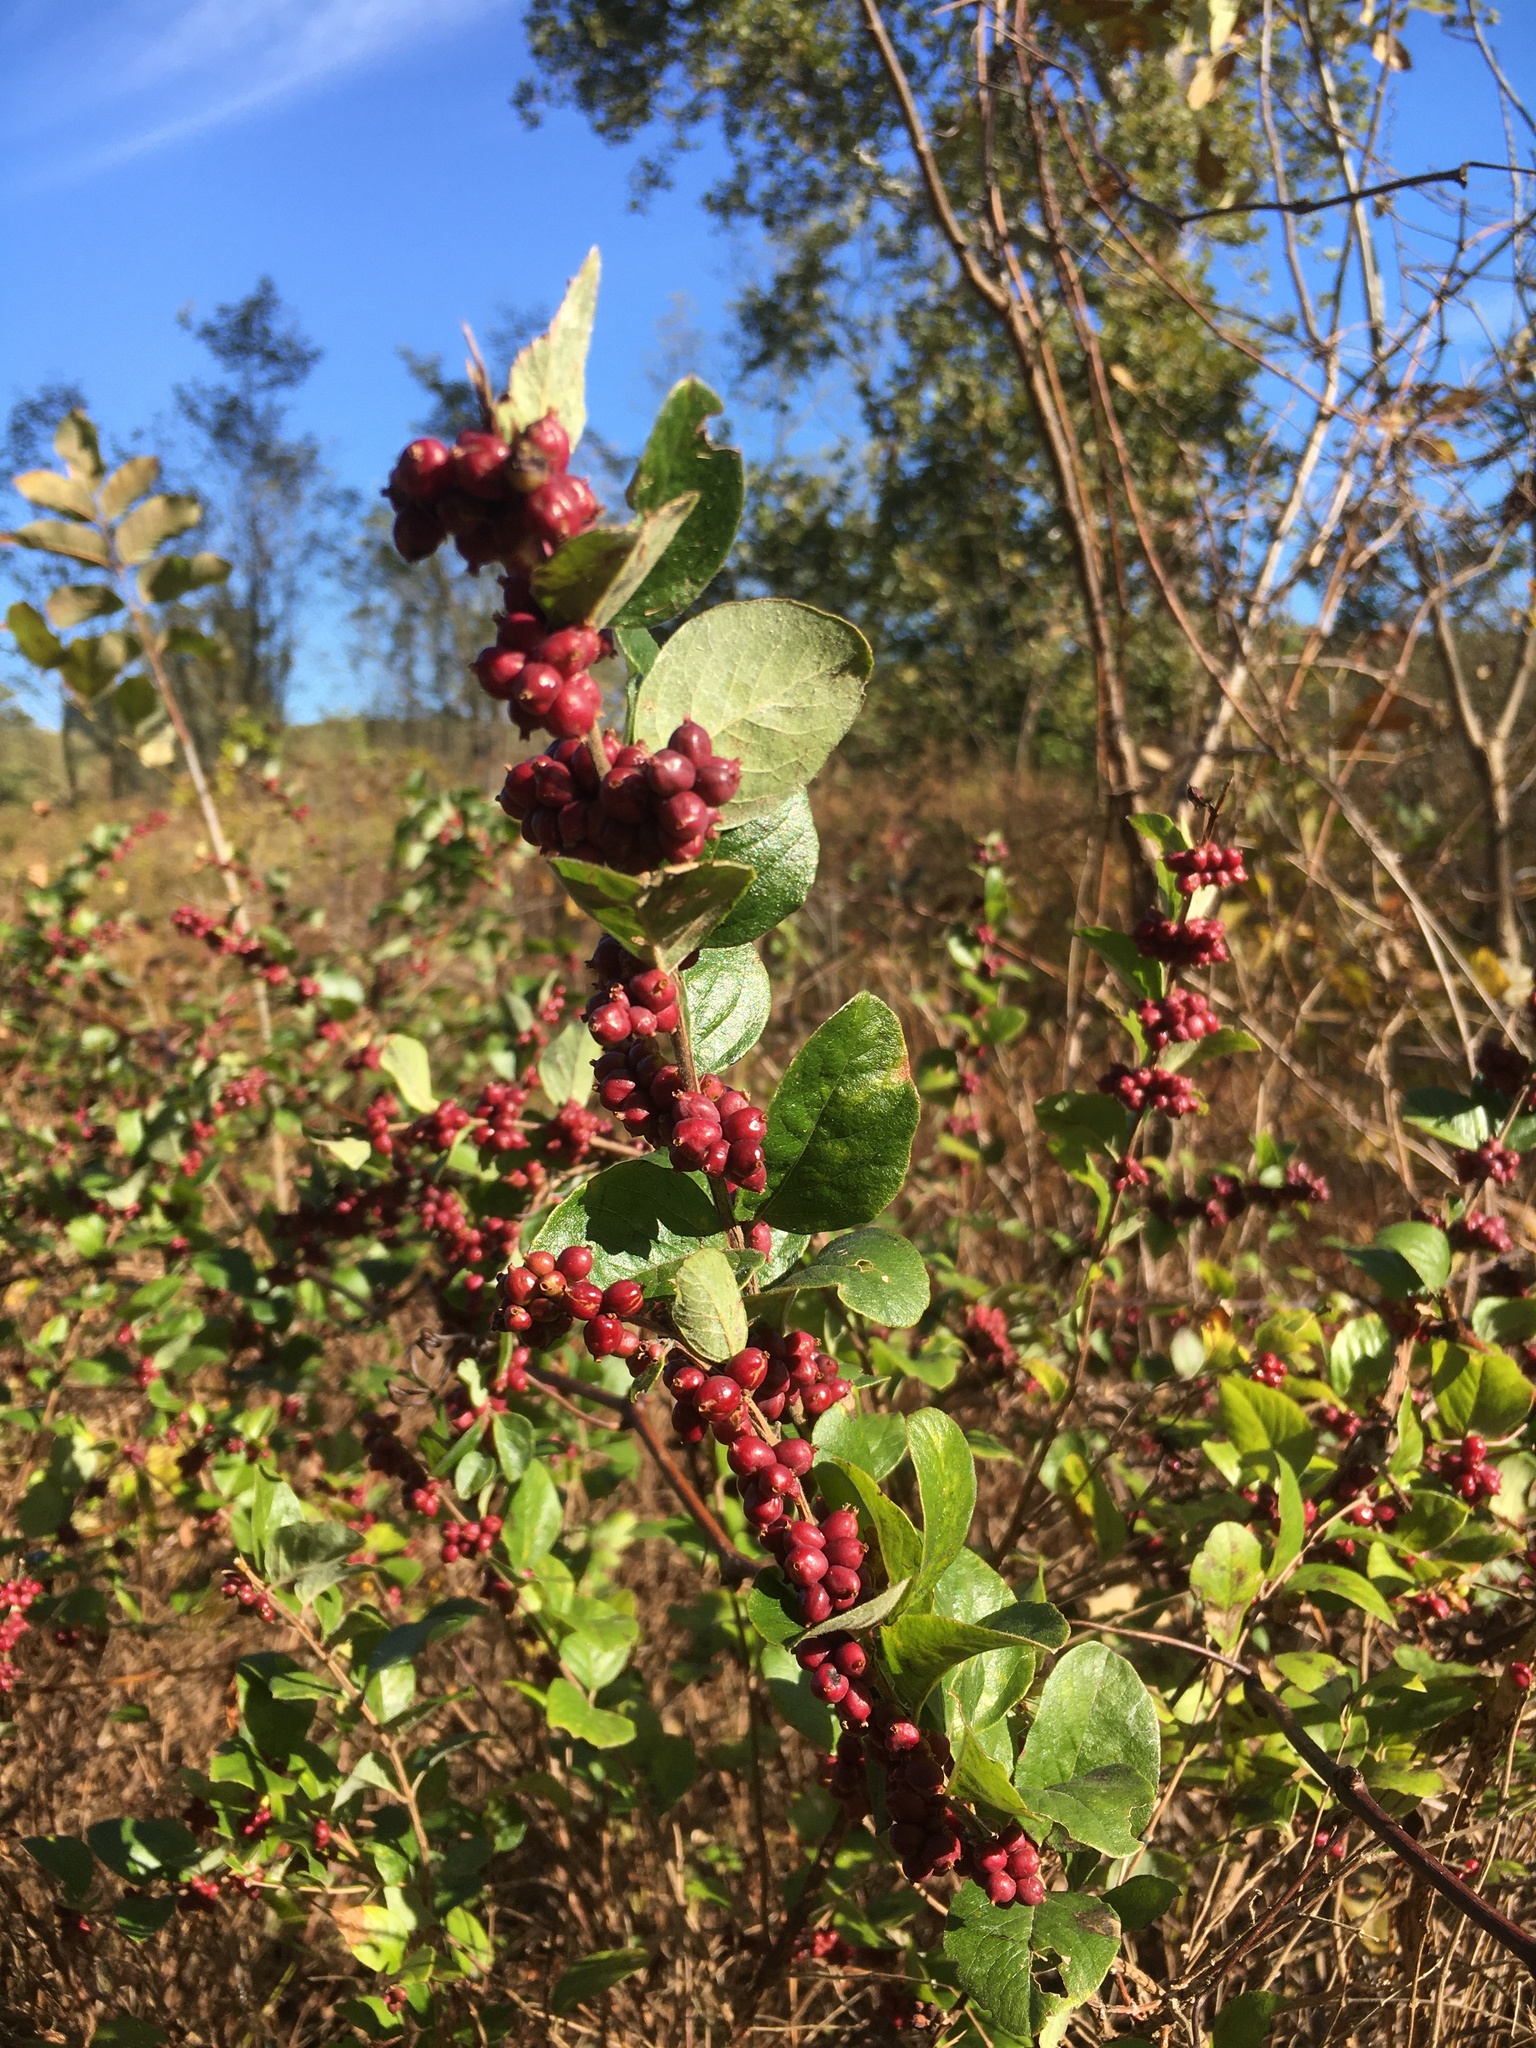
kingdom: Plantae
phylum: Tracheophyta
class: Magnoliopsida
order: Dipsacales
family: Caprifoliaceae
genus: Symphoricarpos
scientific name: Symphoricarpos orbiculatus
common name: Coralberry
